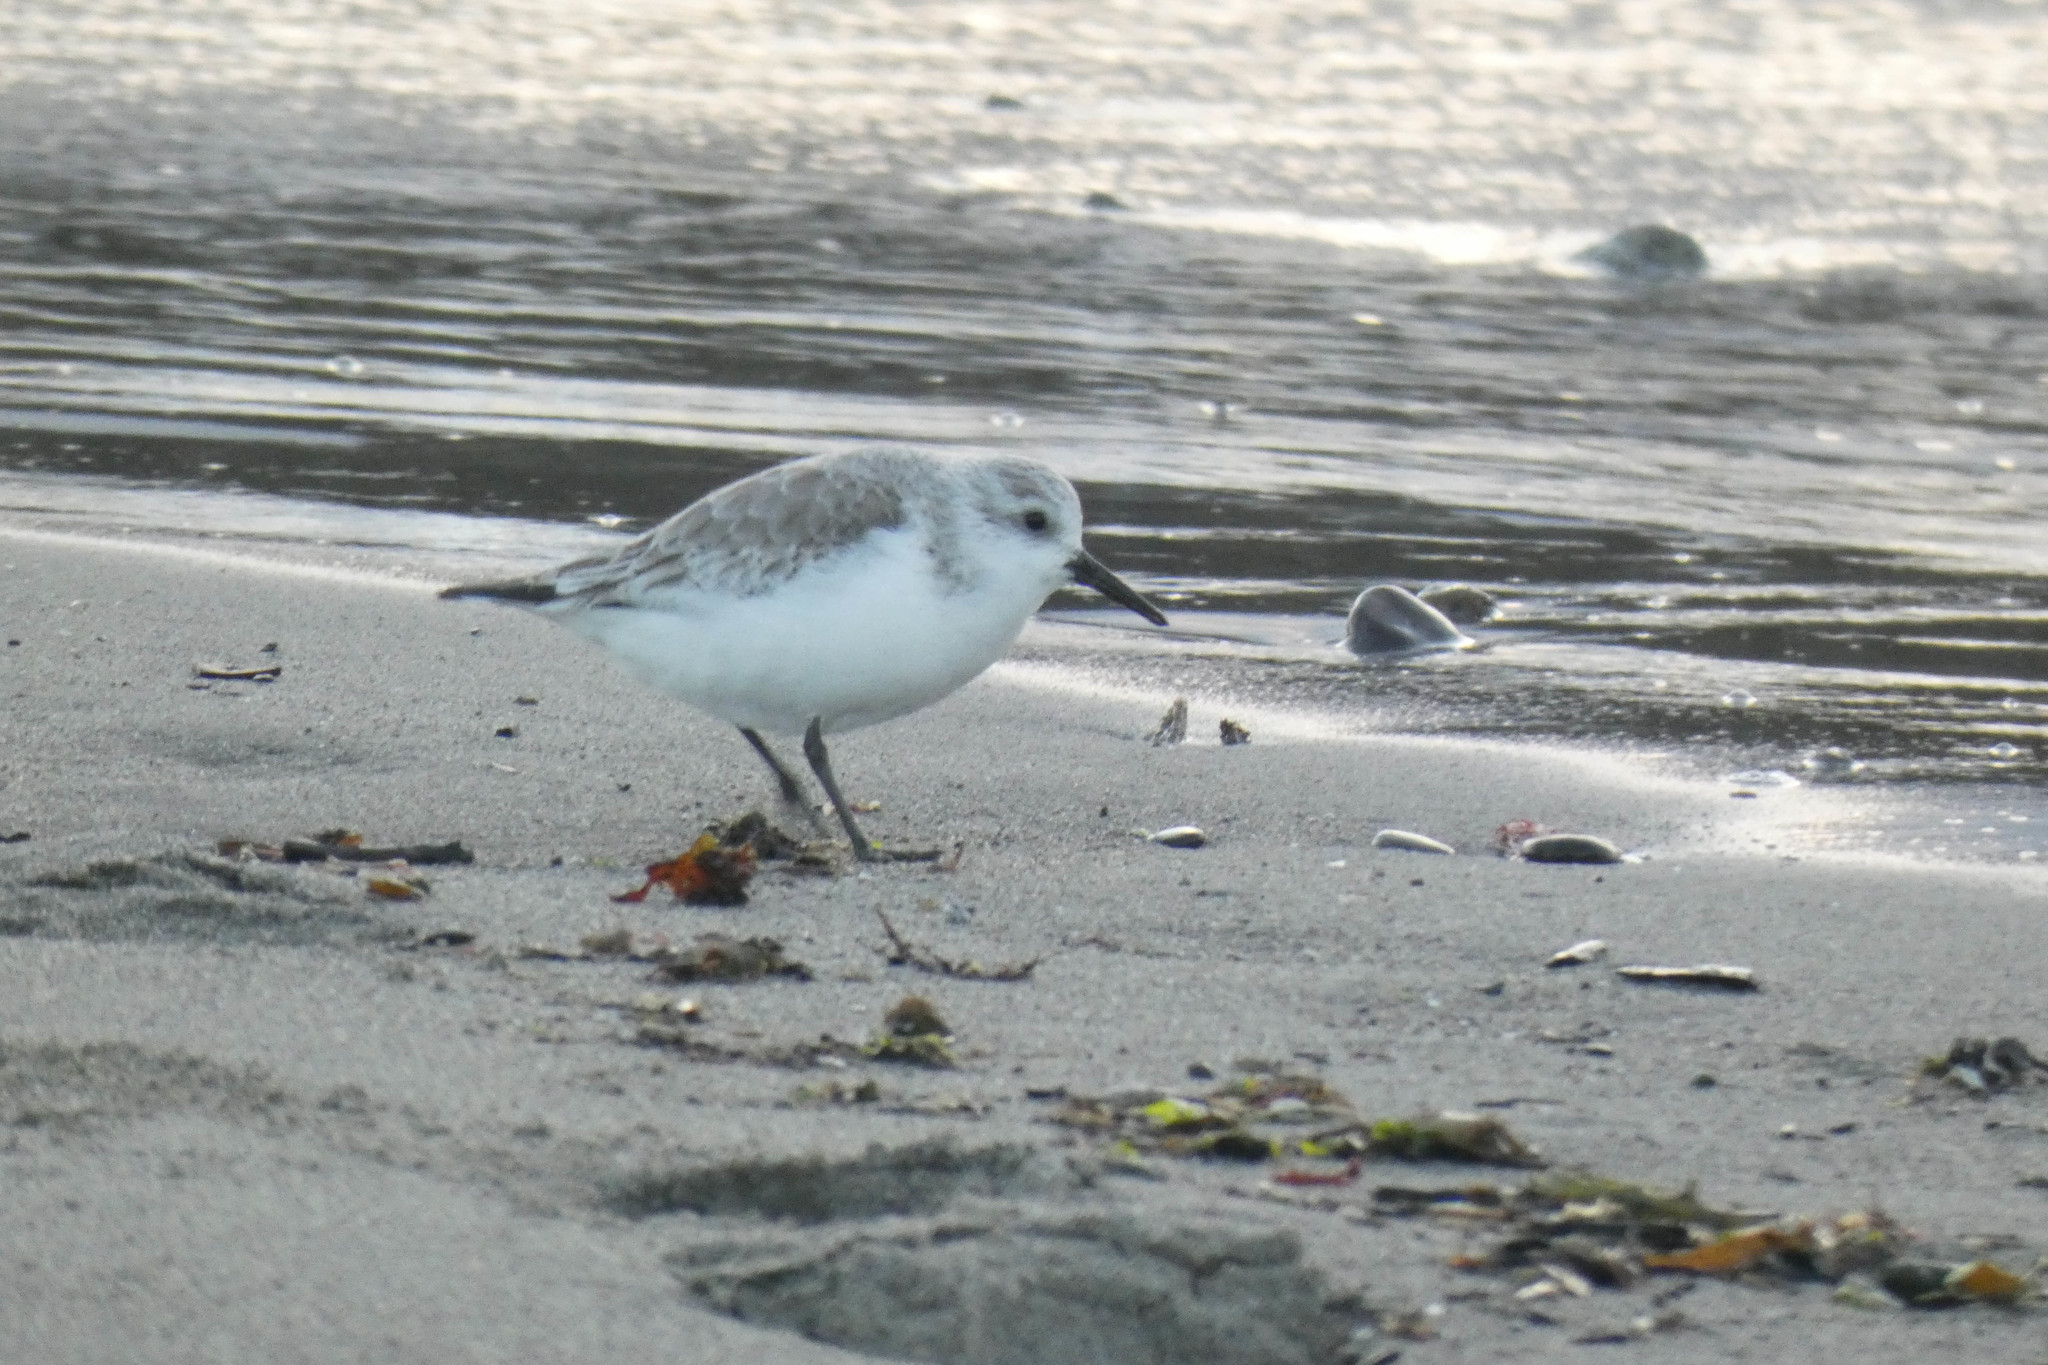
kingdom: Animalia
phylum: Chordata
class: Aves
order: Charadriiformes
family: Scolopacidae
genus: Calidris
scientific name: Calidris alba
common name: Sanderling
